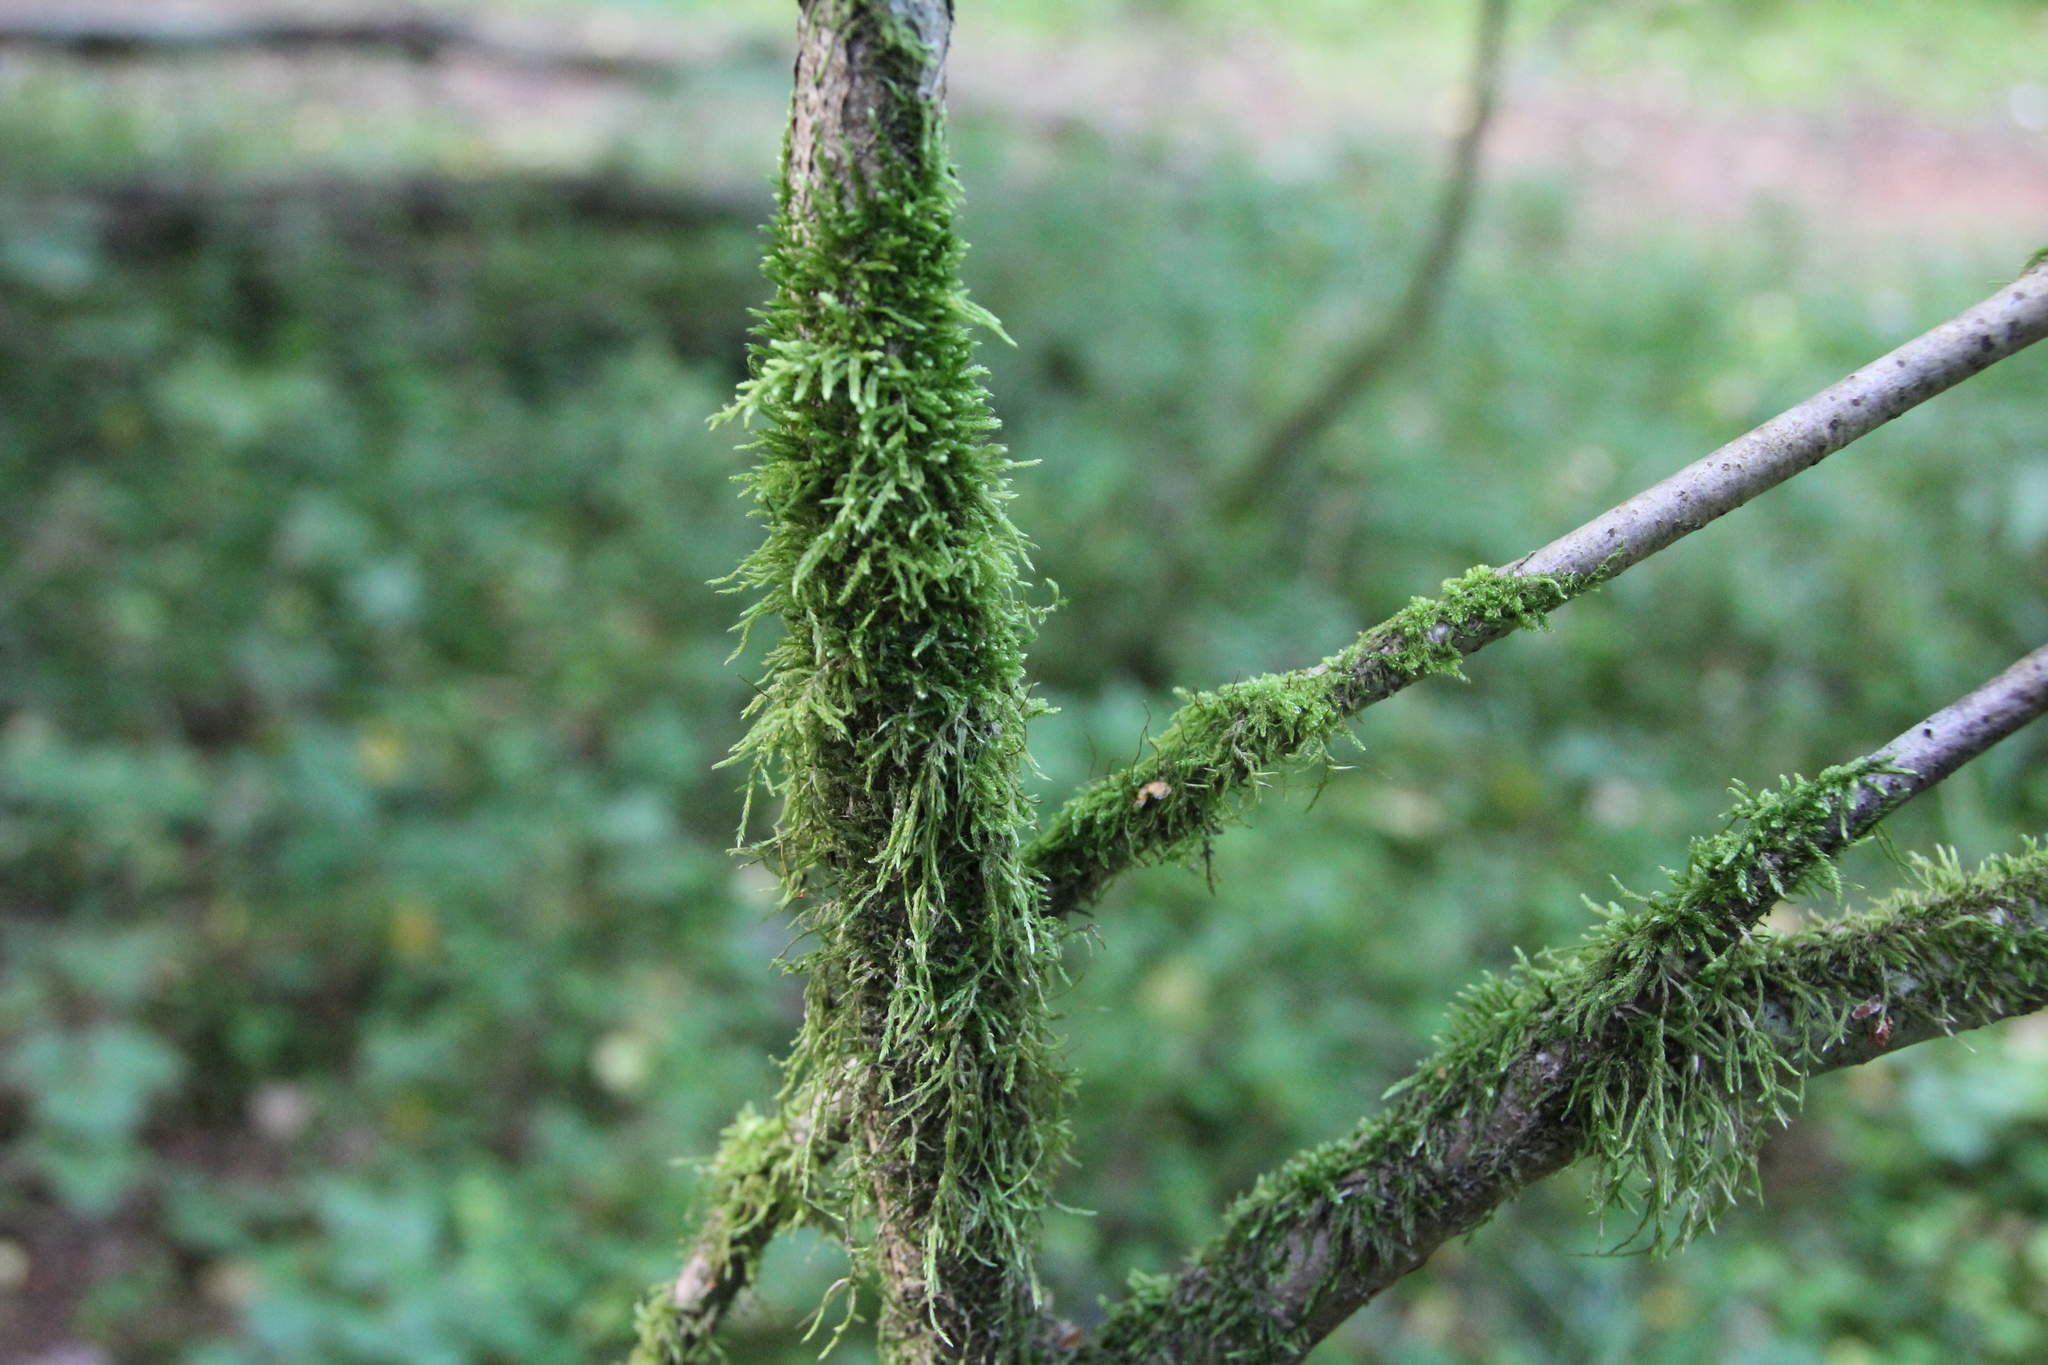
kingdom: Plantae
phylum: Bryophyta
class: Bryopsida
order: Hypnales
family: Hypnaceae
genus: Hypnum
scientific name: Hypnum cupressiforme
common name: Cypress-leaved plait-moss
